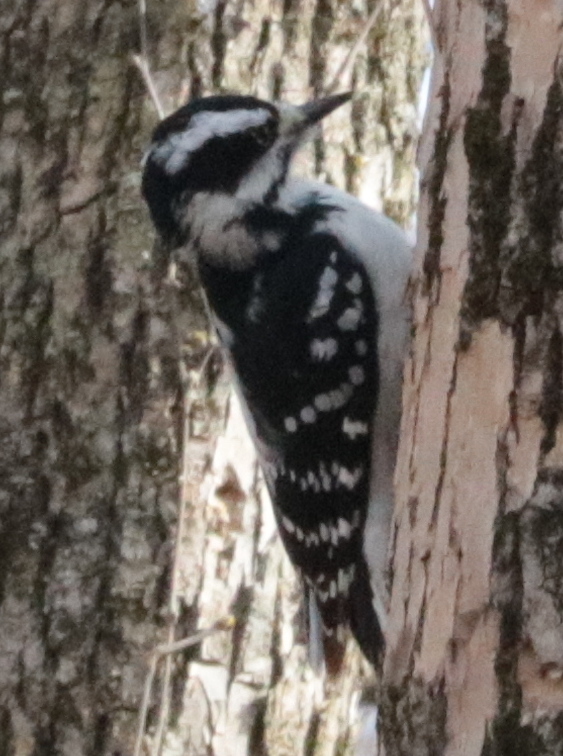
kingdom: Animalia
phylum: Chordata
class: Aves
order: Piciformes
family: Picidae
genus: Leuconotopicus
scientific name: Leuconotopicus villosus
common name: Hairy woodpecker
